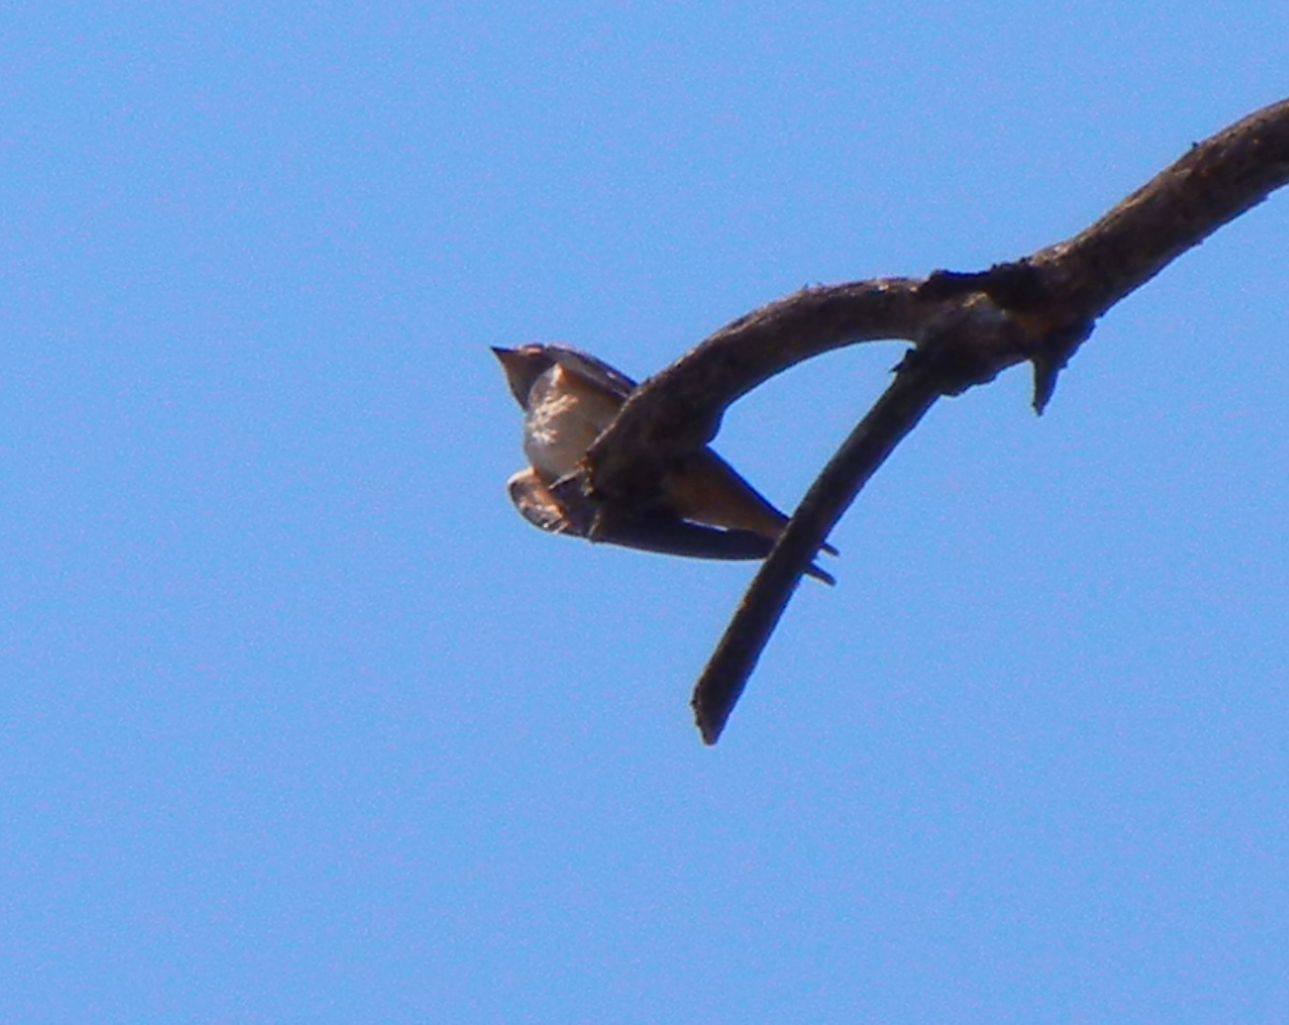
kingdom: Animalia
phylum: Chordata
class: Aves
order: Passeriformes
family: Hirundinidae
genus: Hirundo
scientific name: Hirundo rustica
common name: Barn swallow
